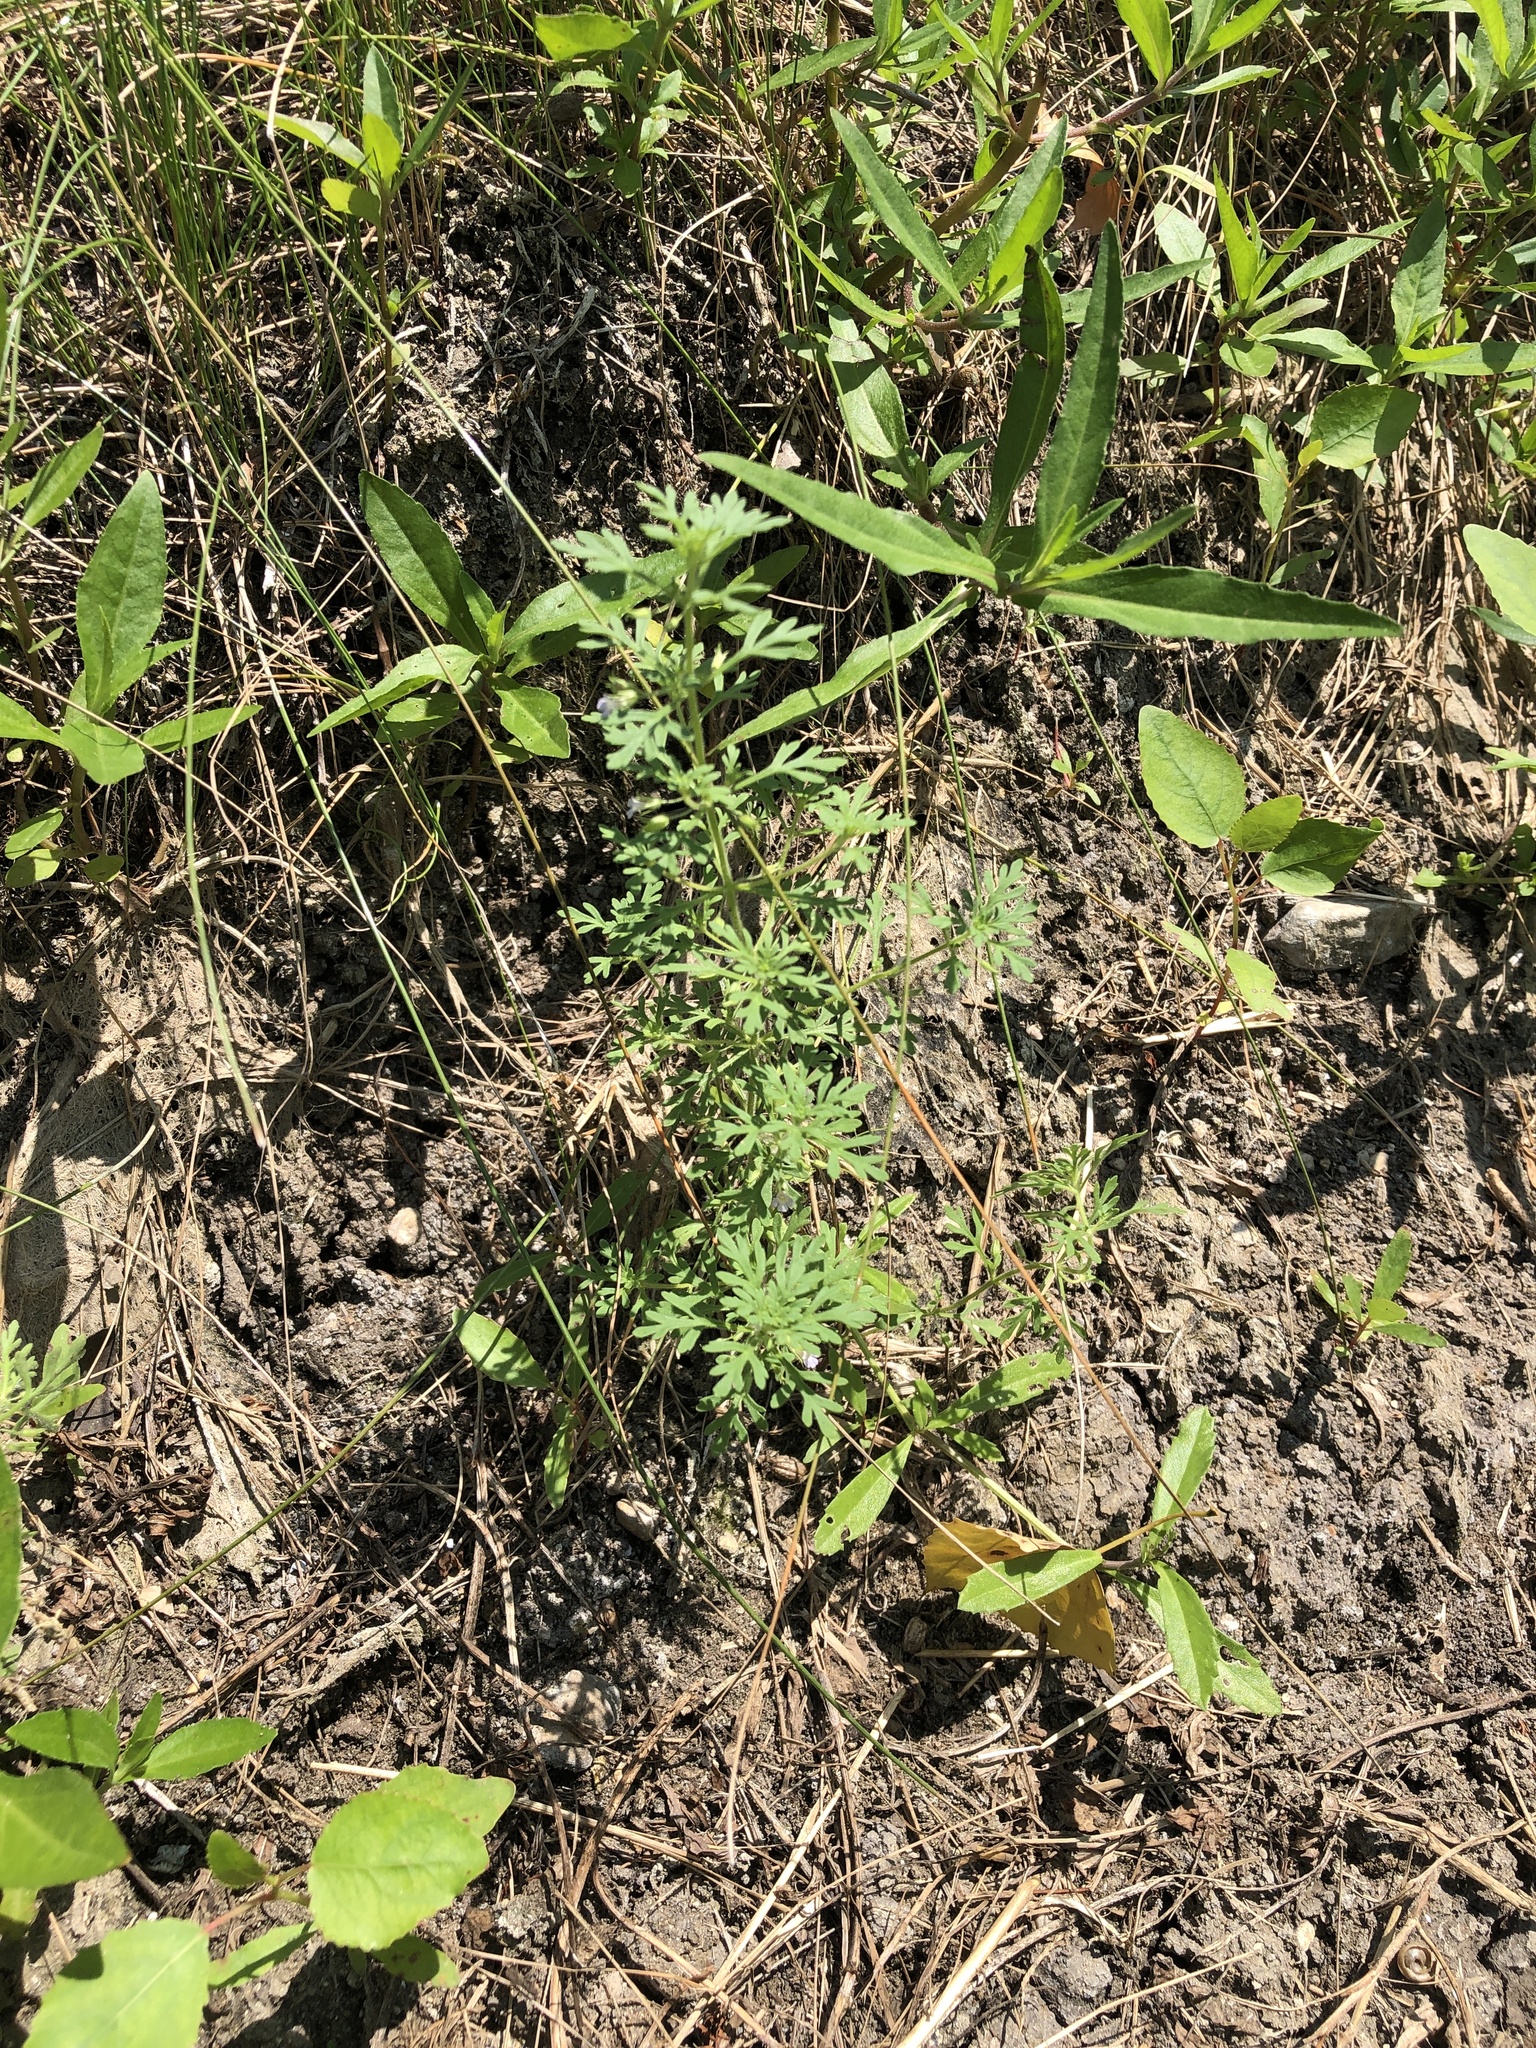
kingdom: Plantae
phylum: Tracheophyta
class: Magnoliopsida
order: Lamiales
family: Plantaginaceae
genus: Leucospora
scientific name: Leucospora multifida
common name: Narrow-leaf paleseed
